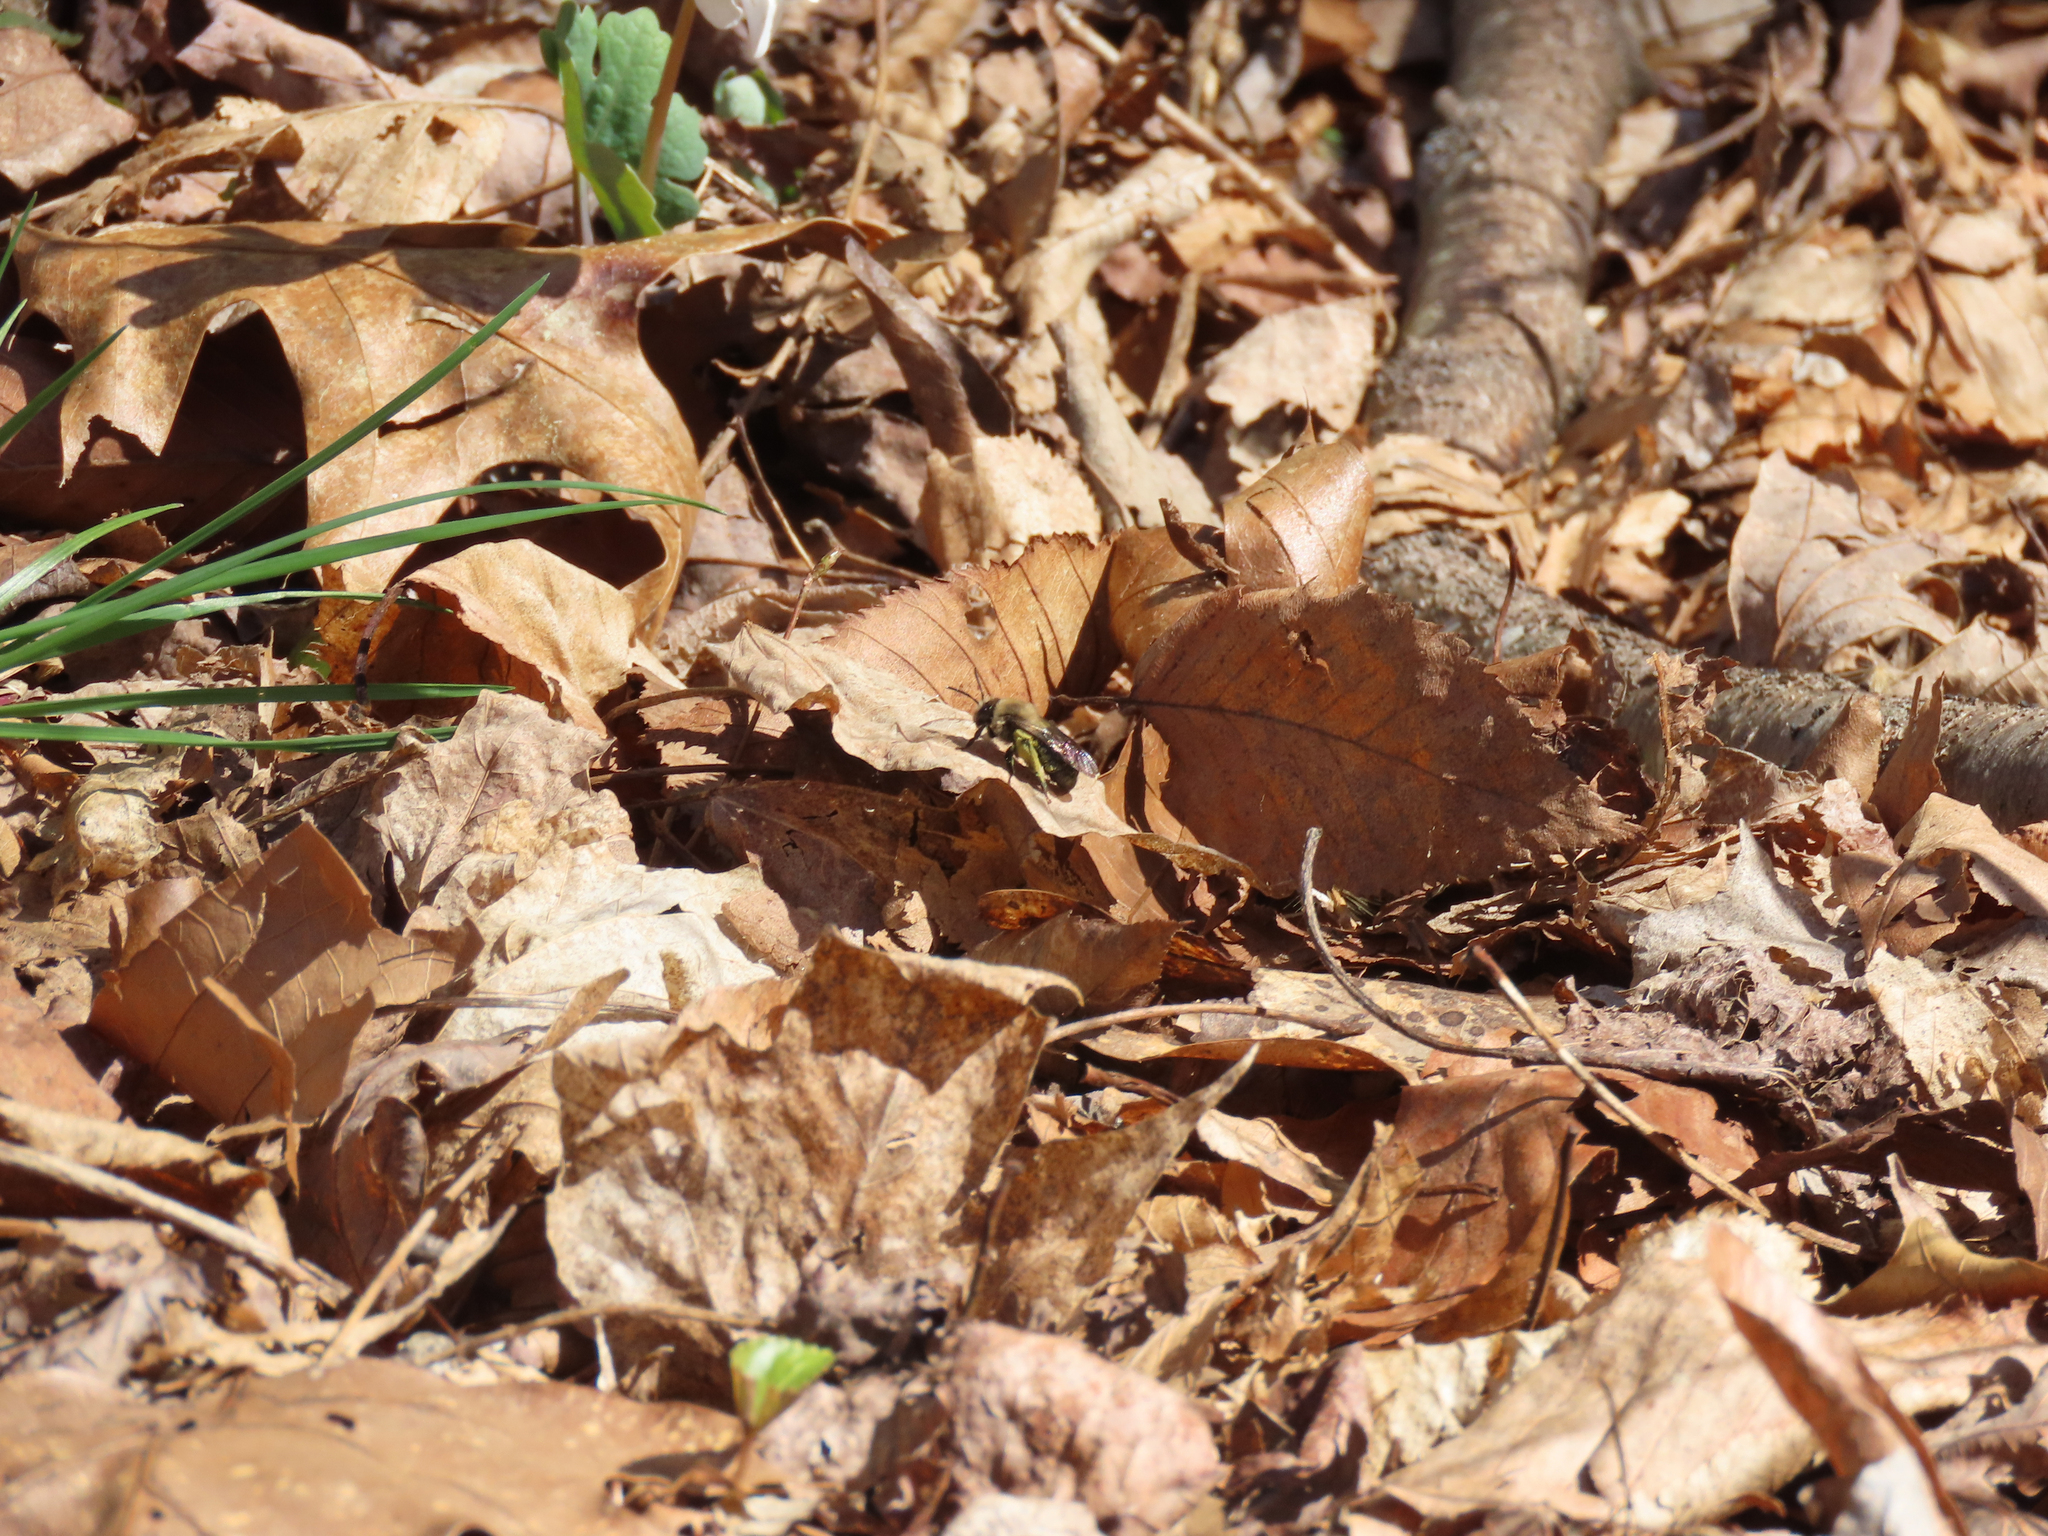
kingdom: Animalia
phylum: Arthropoda
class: Insecta
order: Hymenoptera
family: Andrenidae
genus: Andrena
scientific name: Andrena carlini
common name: Carlin's mining bee
